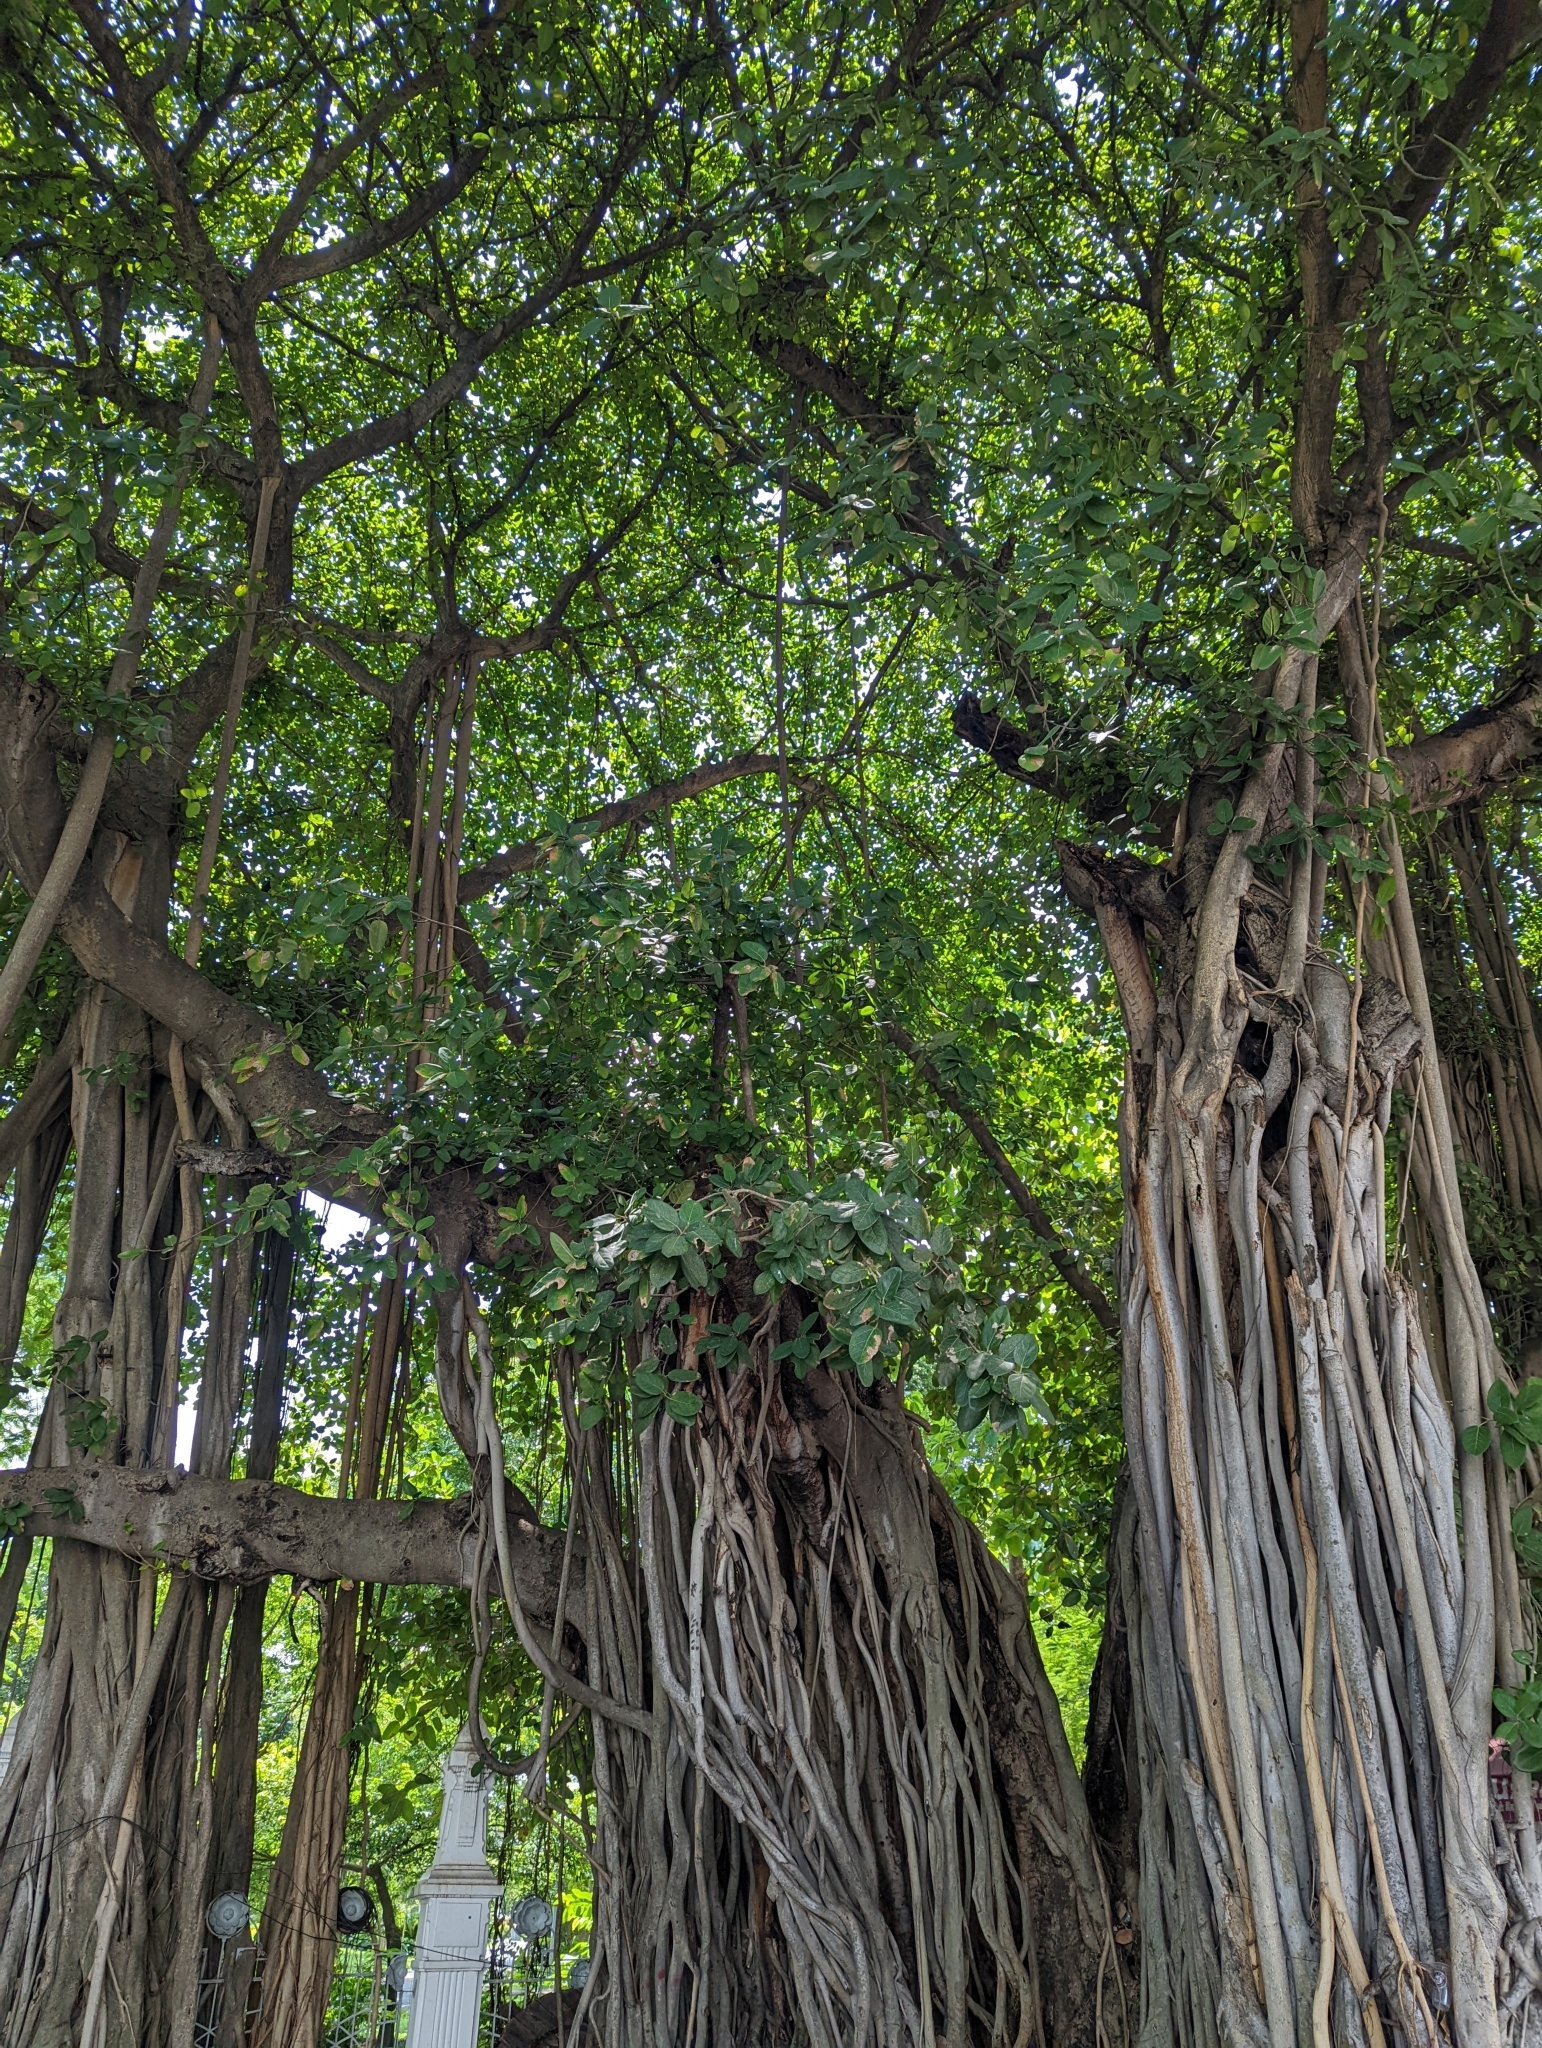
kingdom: Plantae
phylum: Tracheophyta
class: Magnoliopsida
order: Rosales
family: Moraceae
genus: Ficus
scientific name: Ficus microcarpa
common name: Chinese banyan
